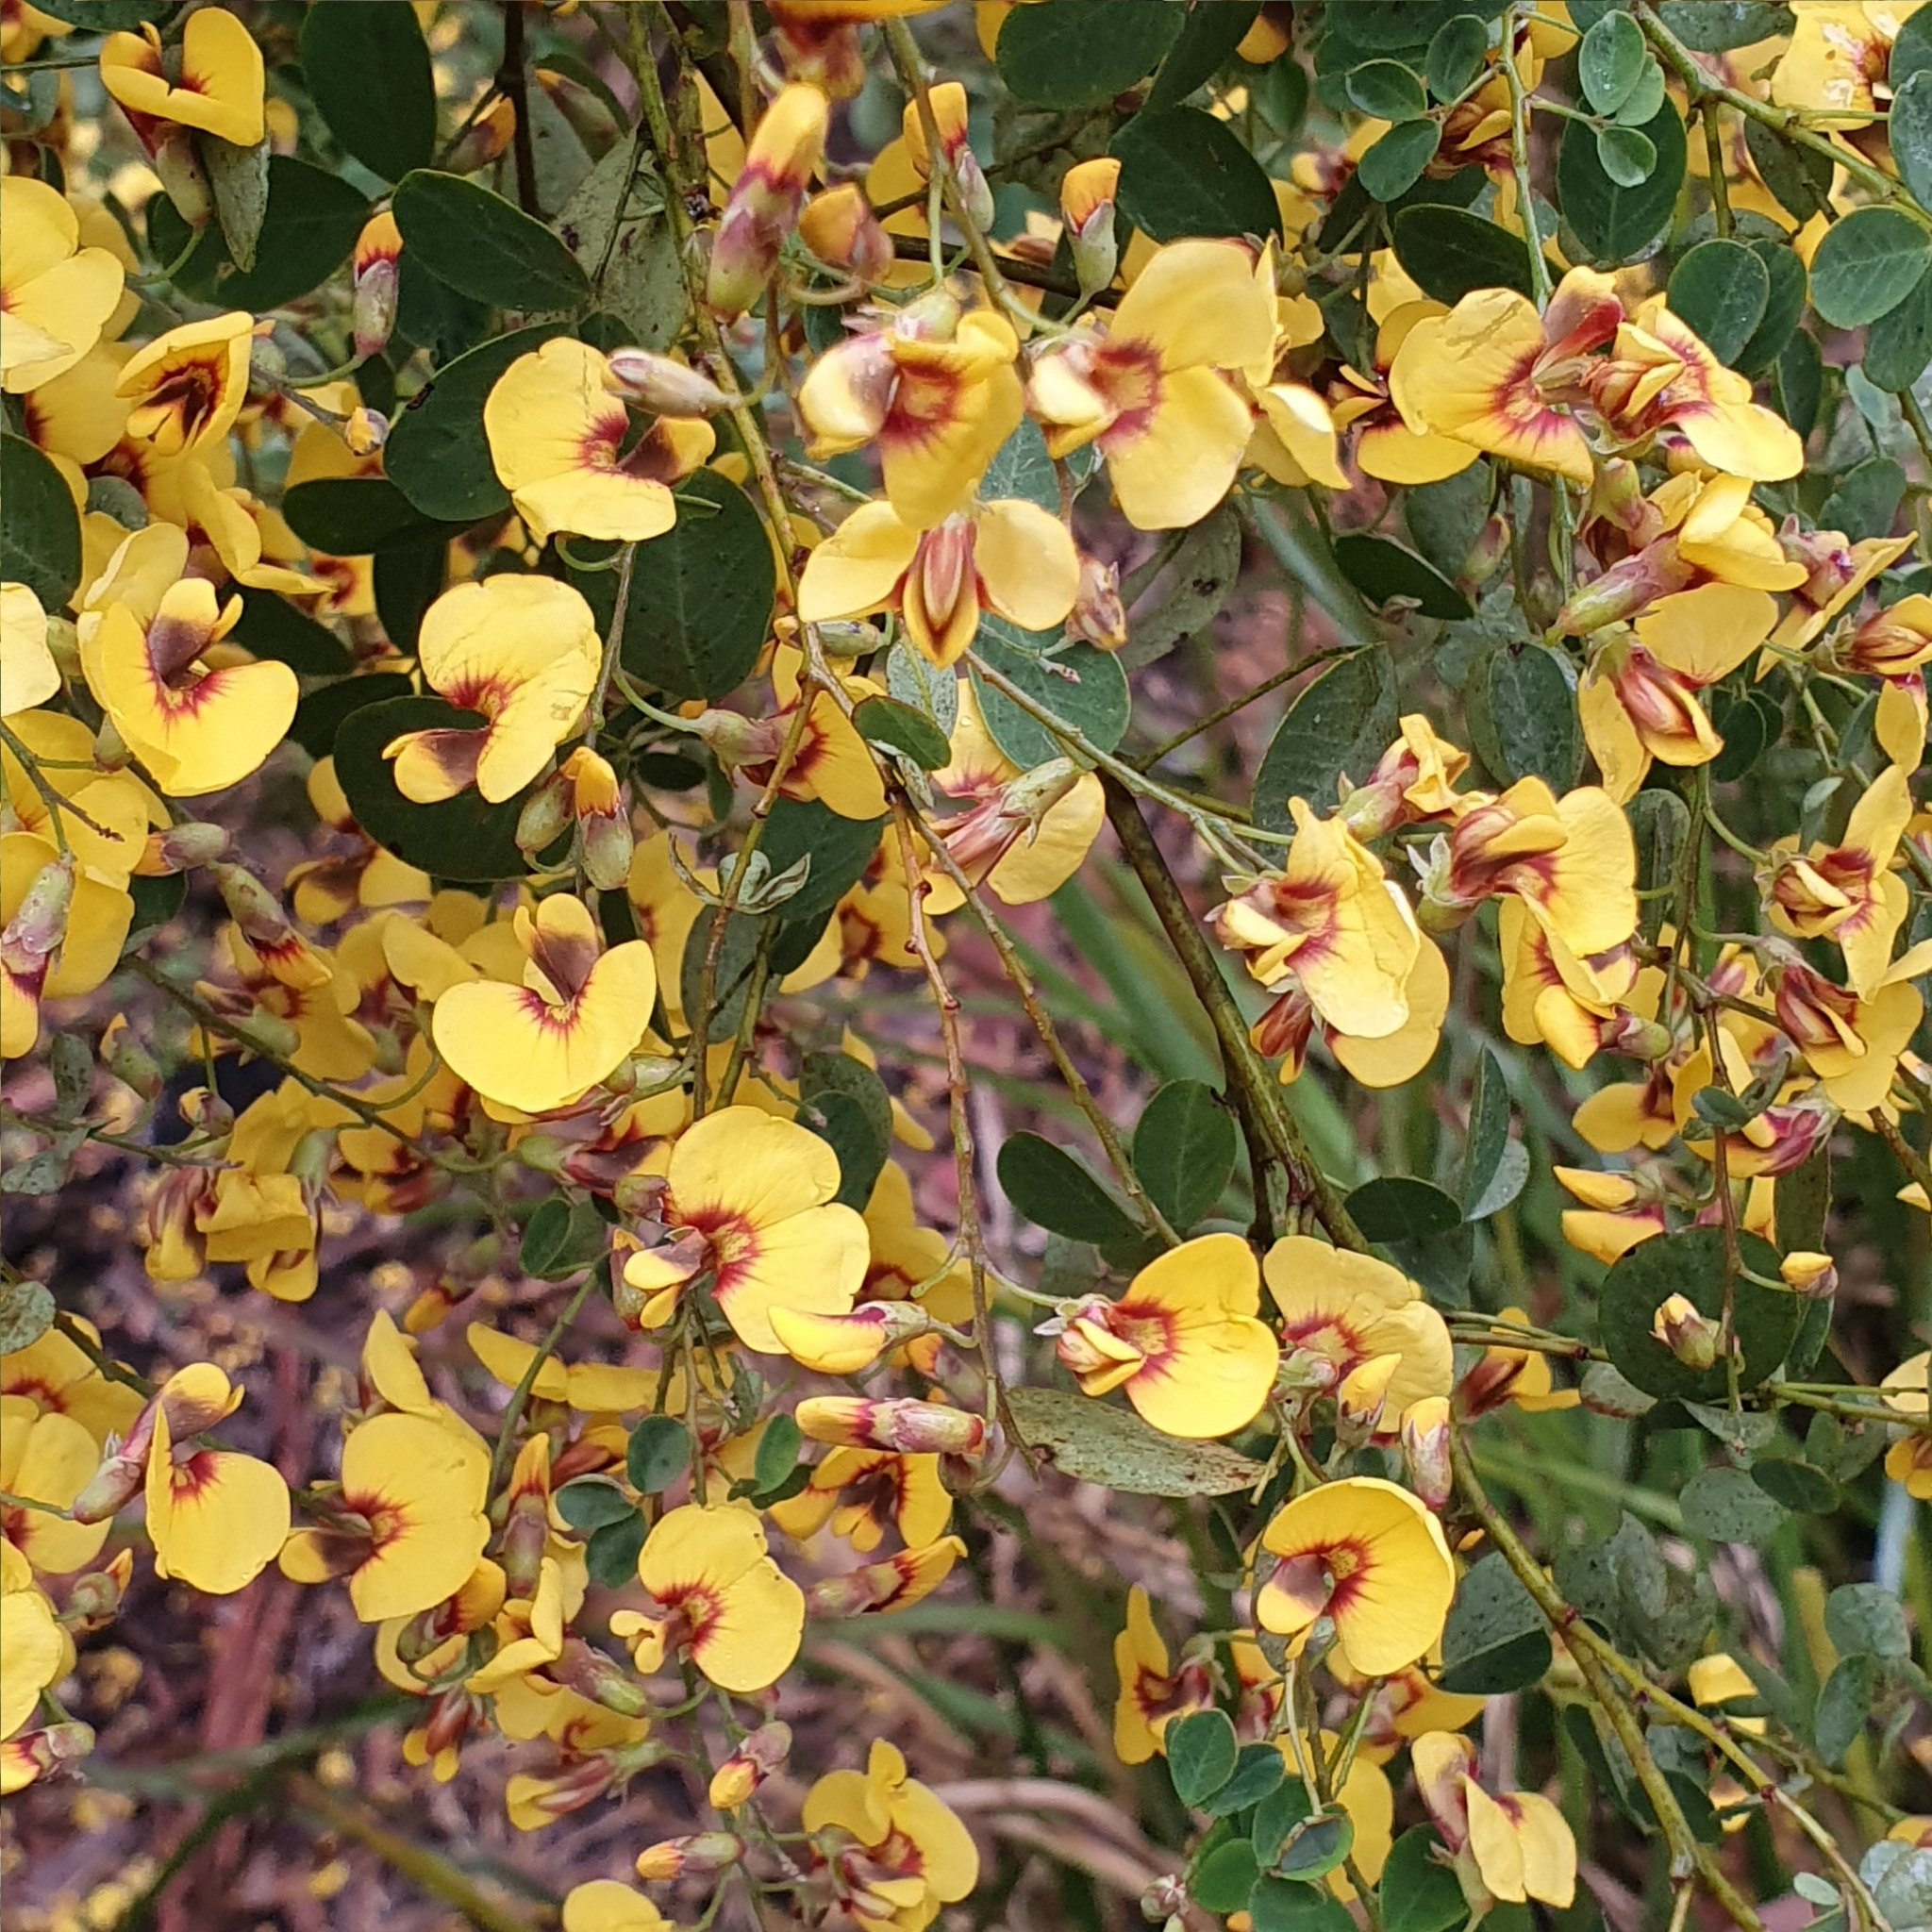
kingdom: Plantae
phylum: Tracheophyta
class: Magnoliopsida
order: Fabales
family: Fabaceae
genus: Goodia
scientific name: Goodia lotifolia
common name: Cloverleaf-poison
